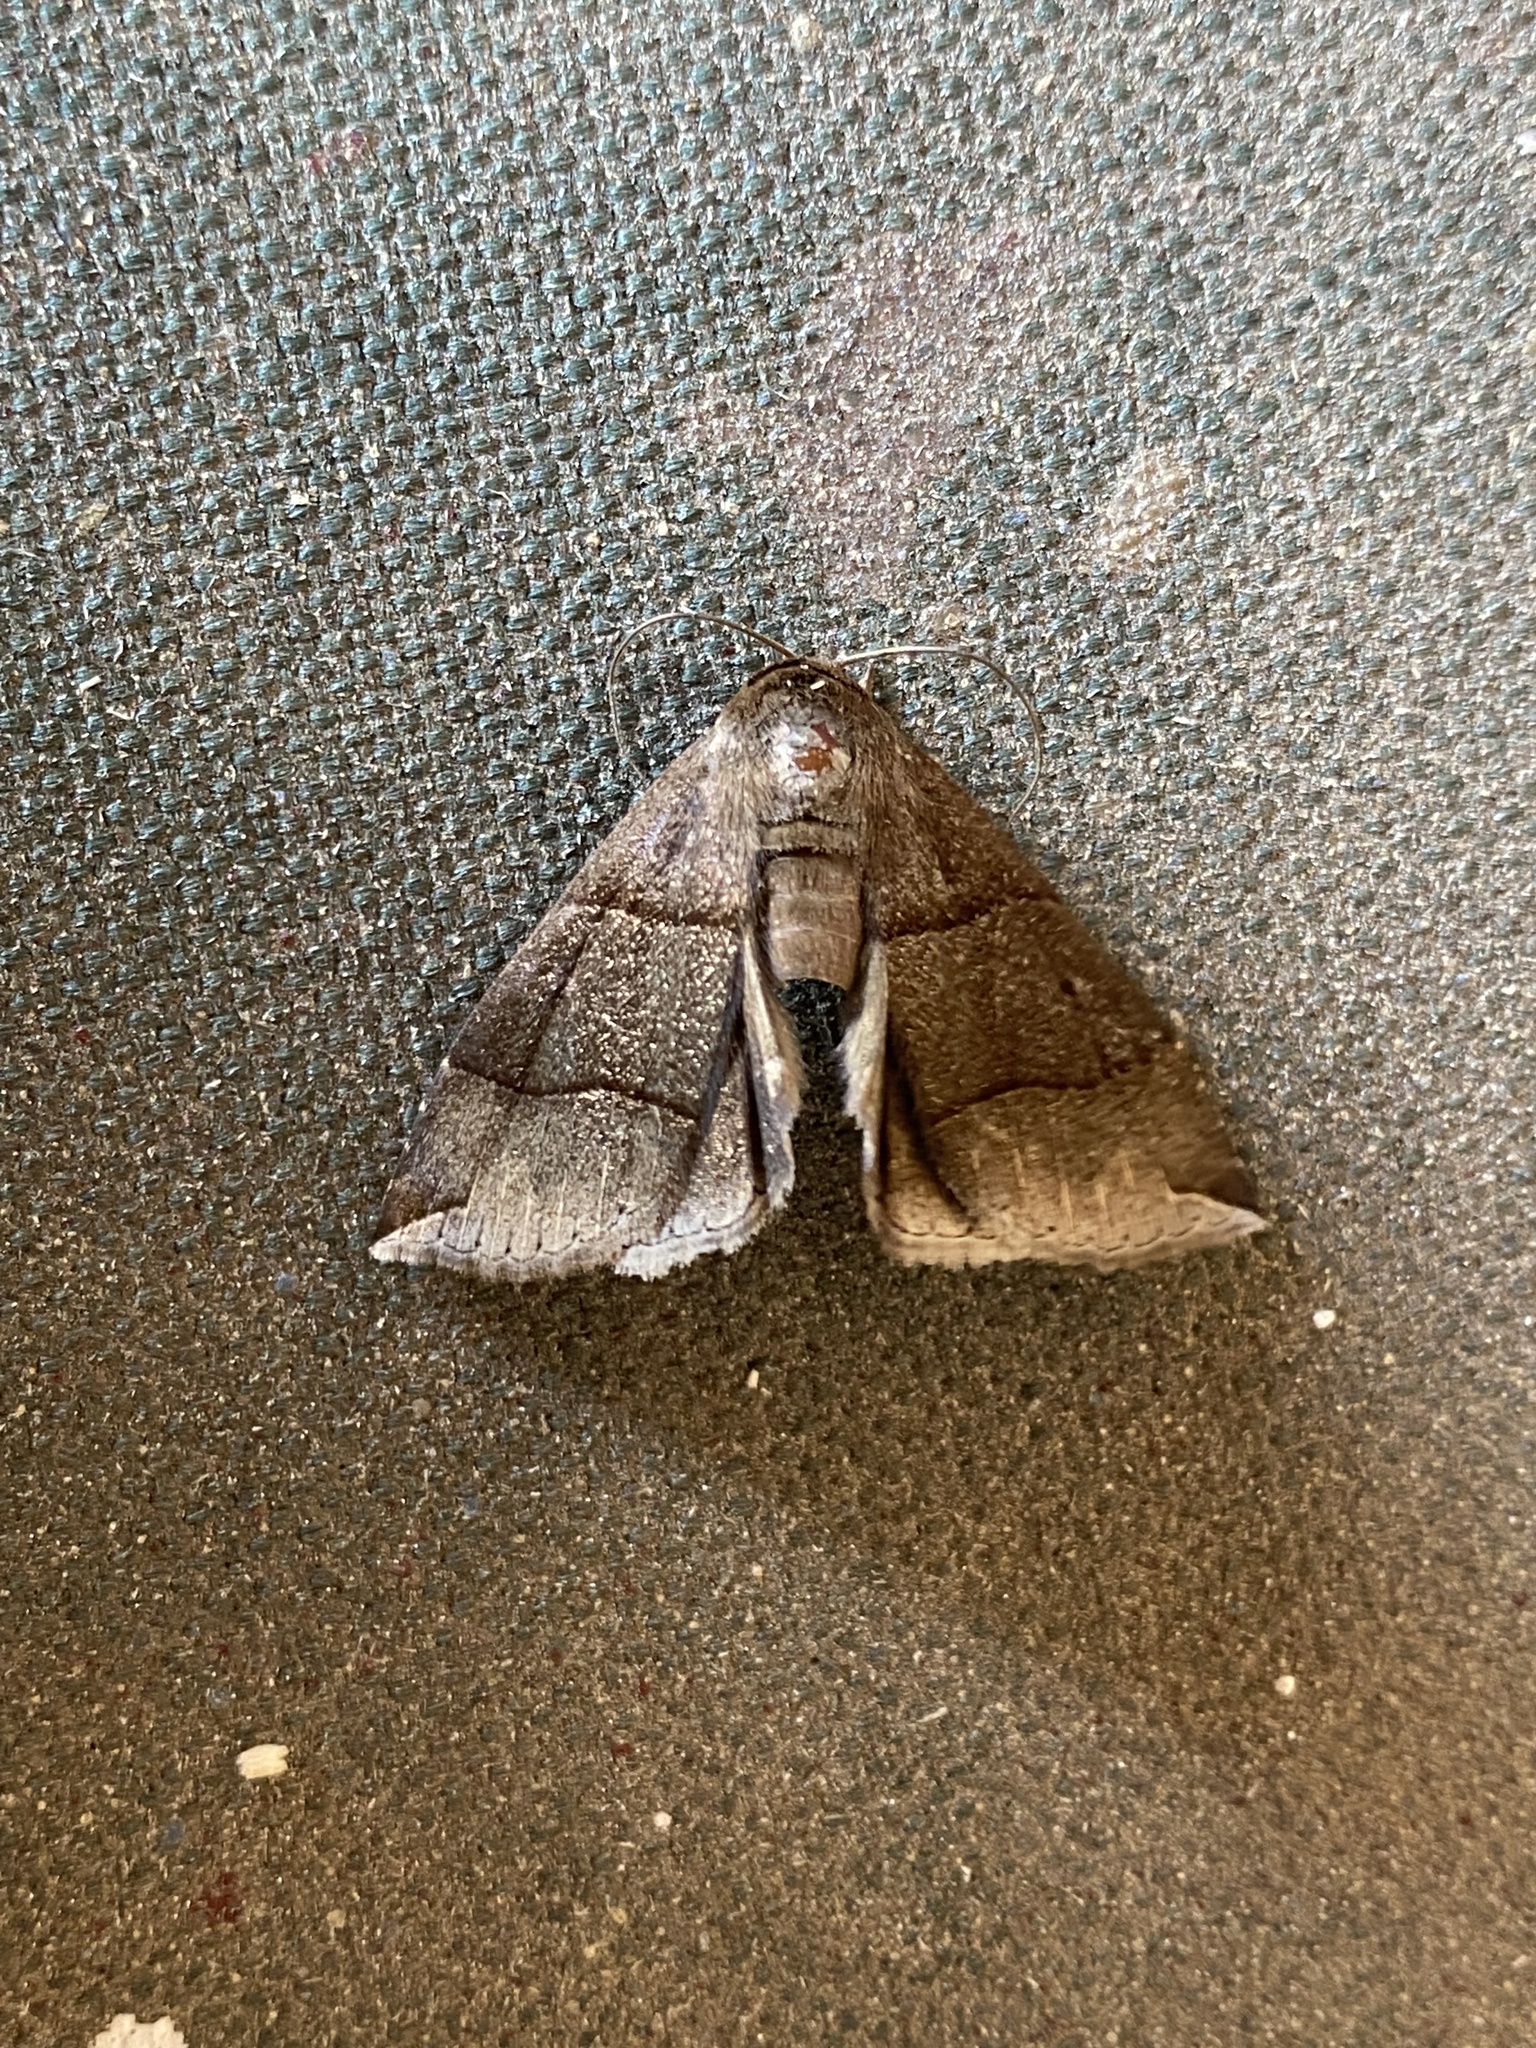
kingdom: Animalia
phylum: Arthropoda
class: Insecta
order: Lepidoptera
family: Erebidae
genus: Parallelia
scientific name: Parallelia bistriaris
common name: Maple looper moth
